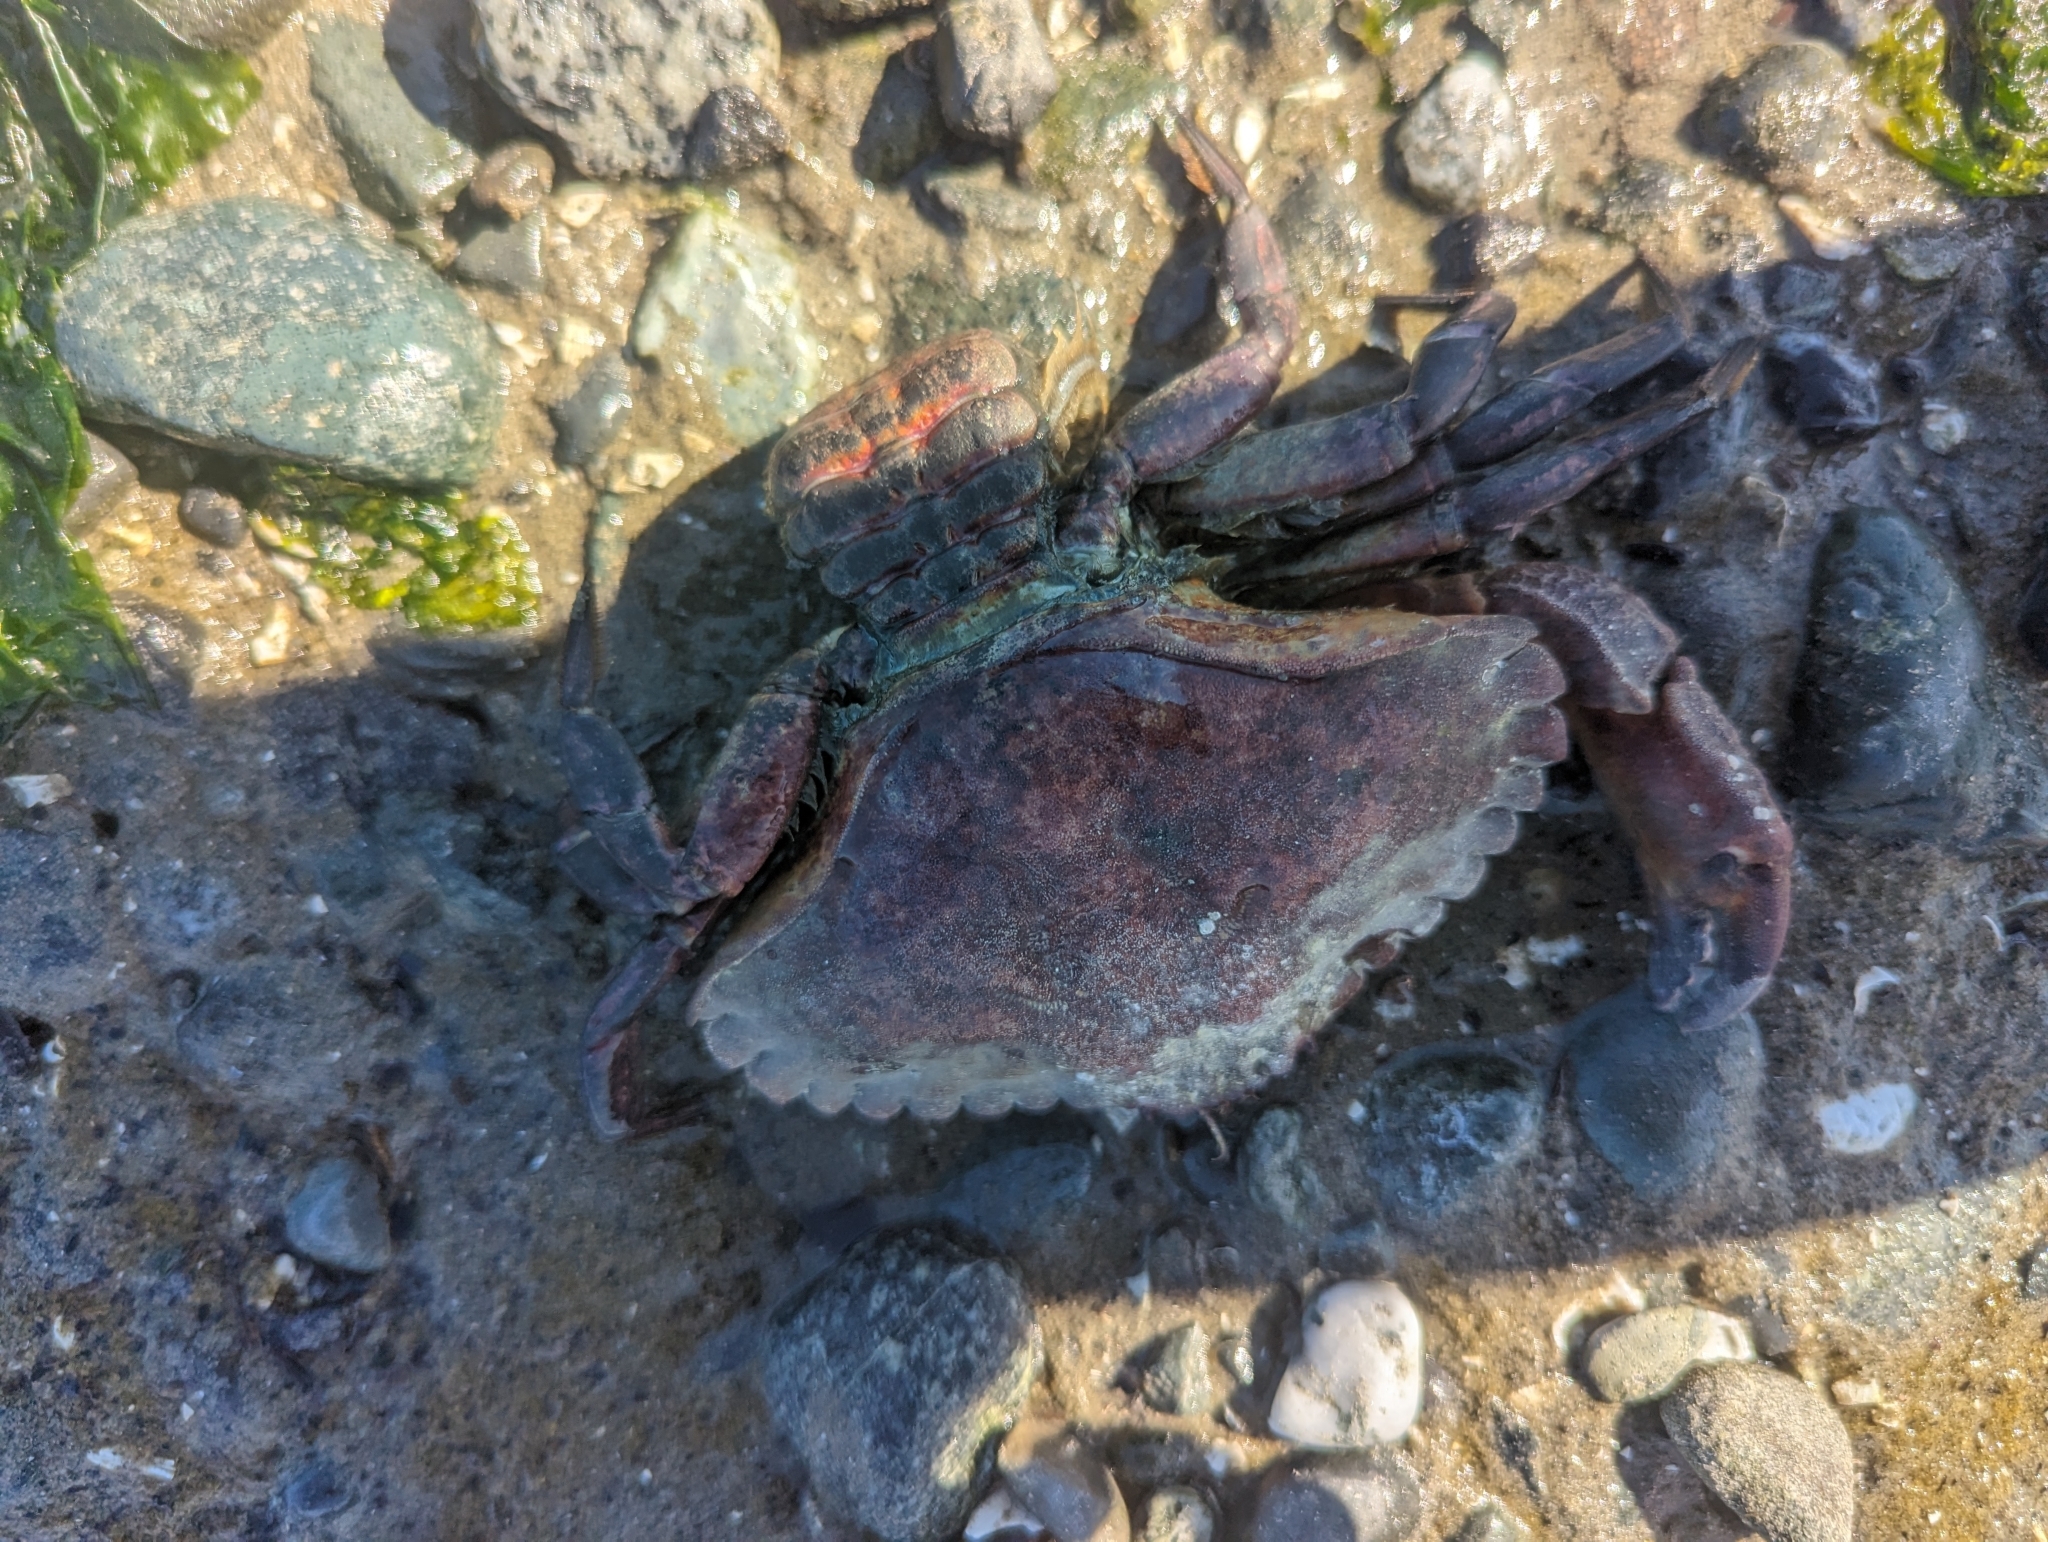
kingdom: Animalia
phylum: Arthropoda
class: Malacostraca
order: Decapoda
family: Cancridae
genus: Cancer
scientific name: Cancer productus
